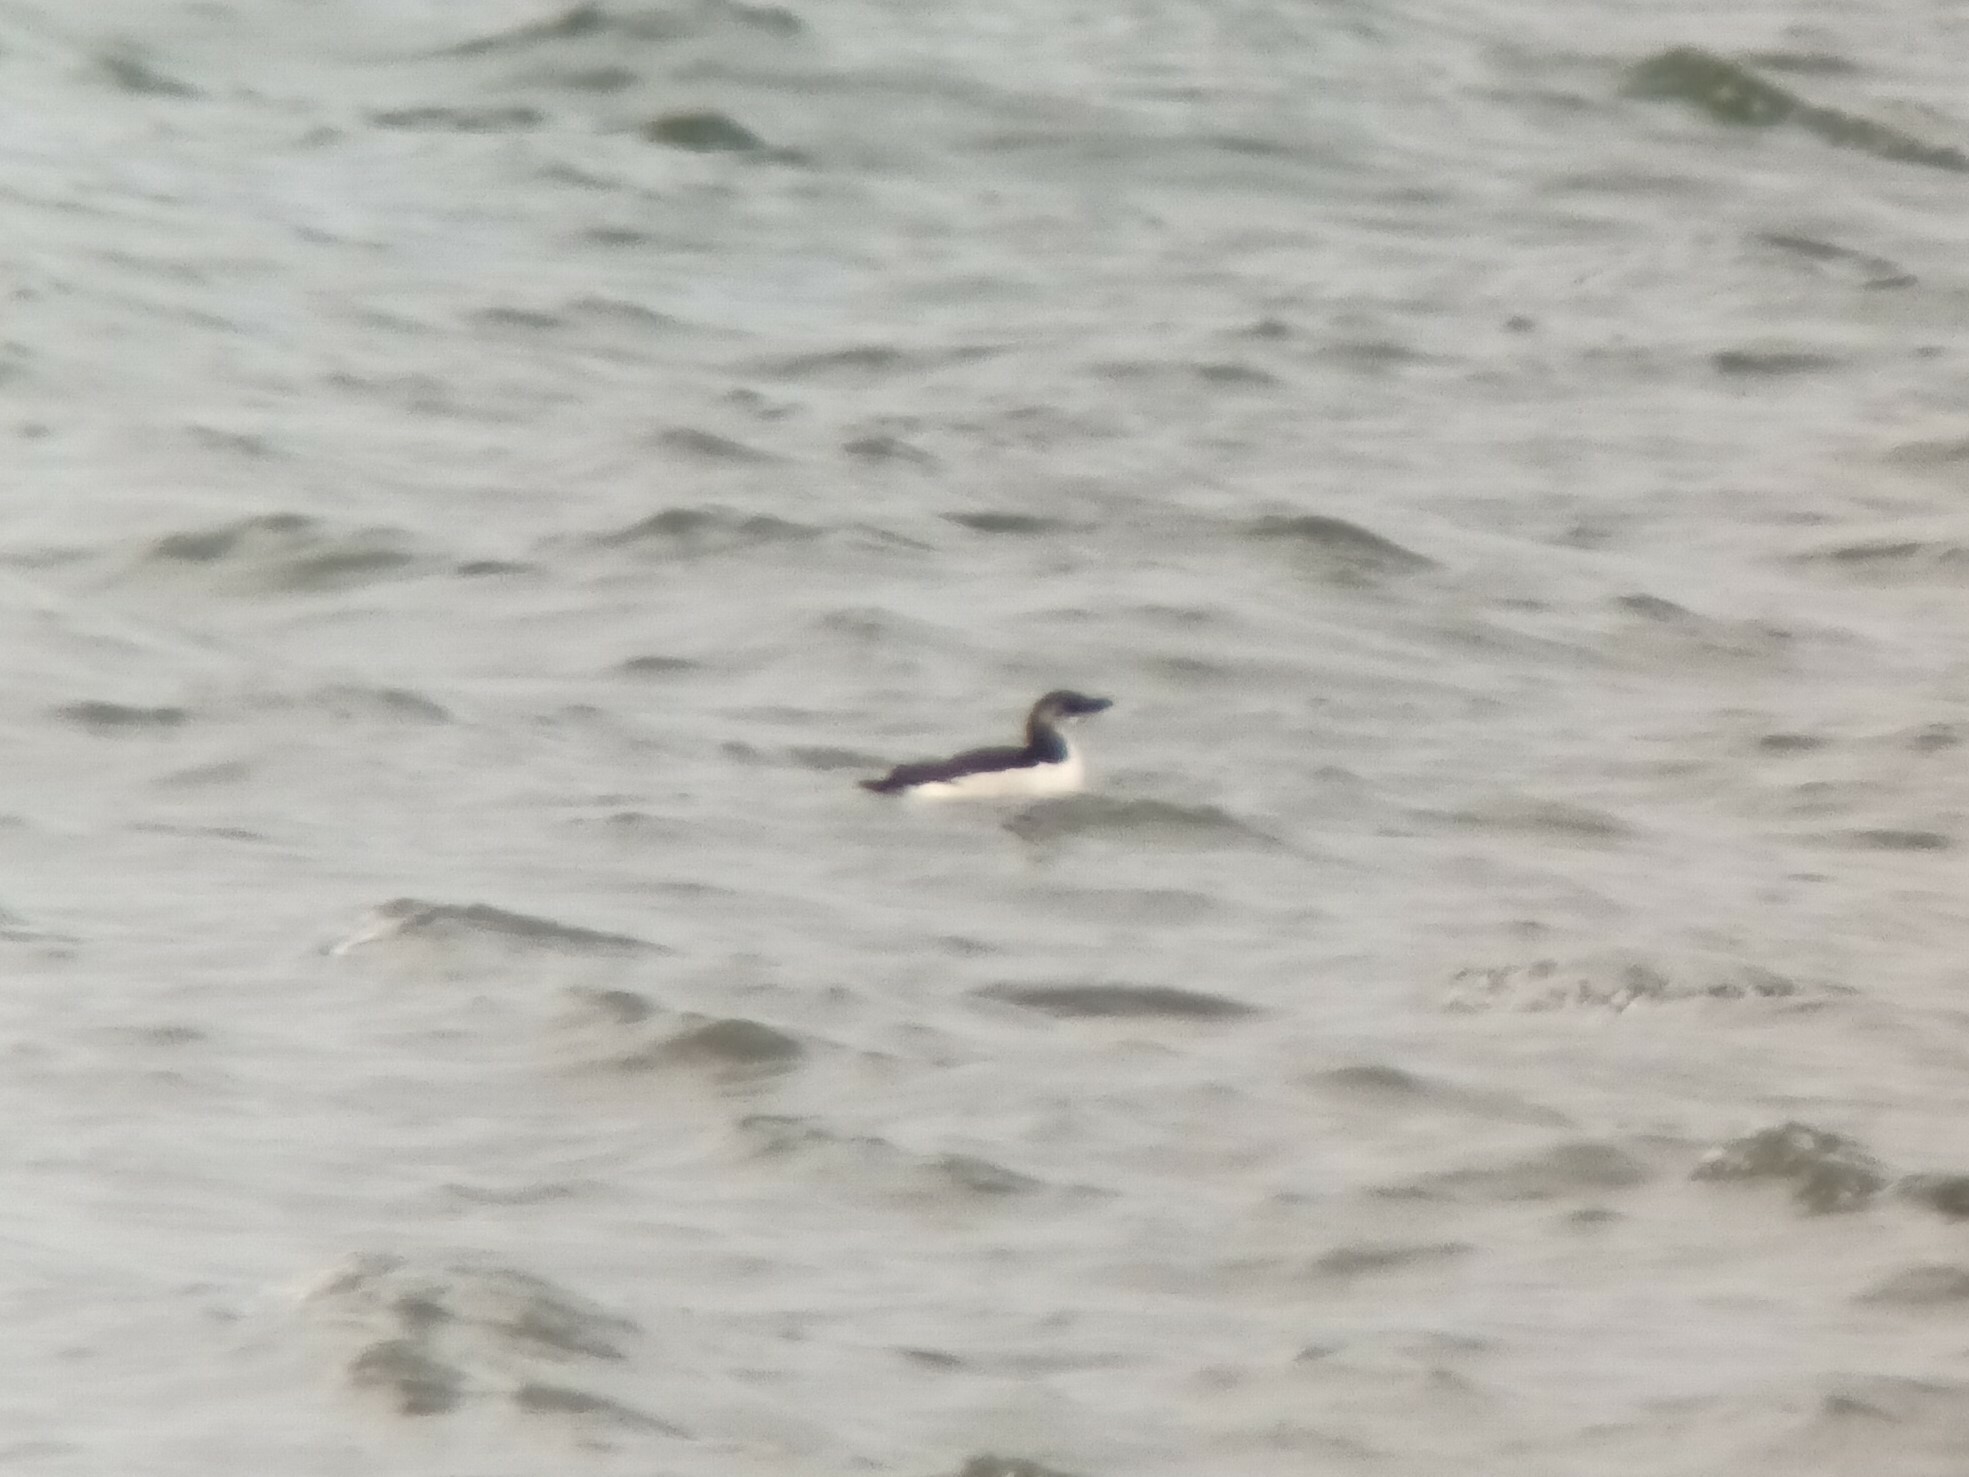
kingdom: Animalia
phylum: Chordata
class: Aves
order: Charadriiformes
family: Alcidae
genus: Alca
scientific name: Alca torda
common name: Razorbill
